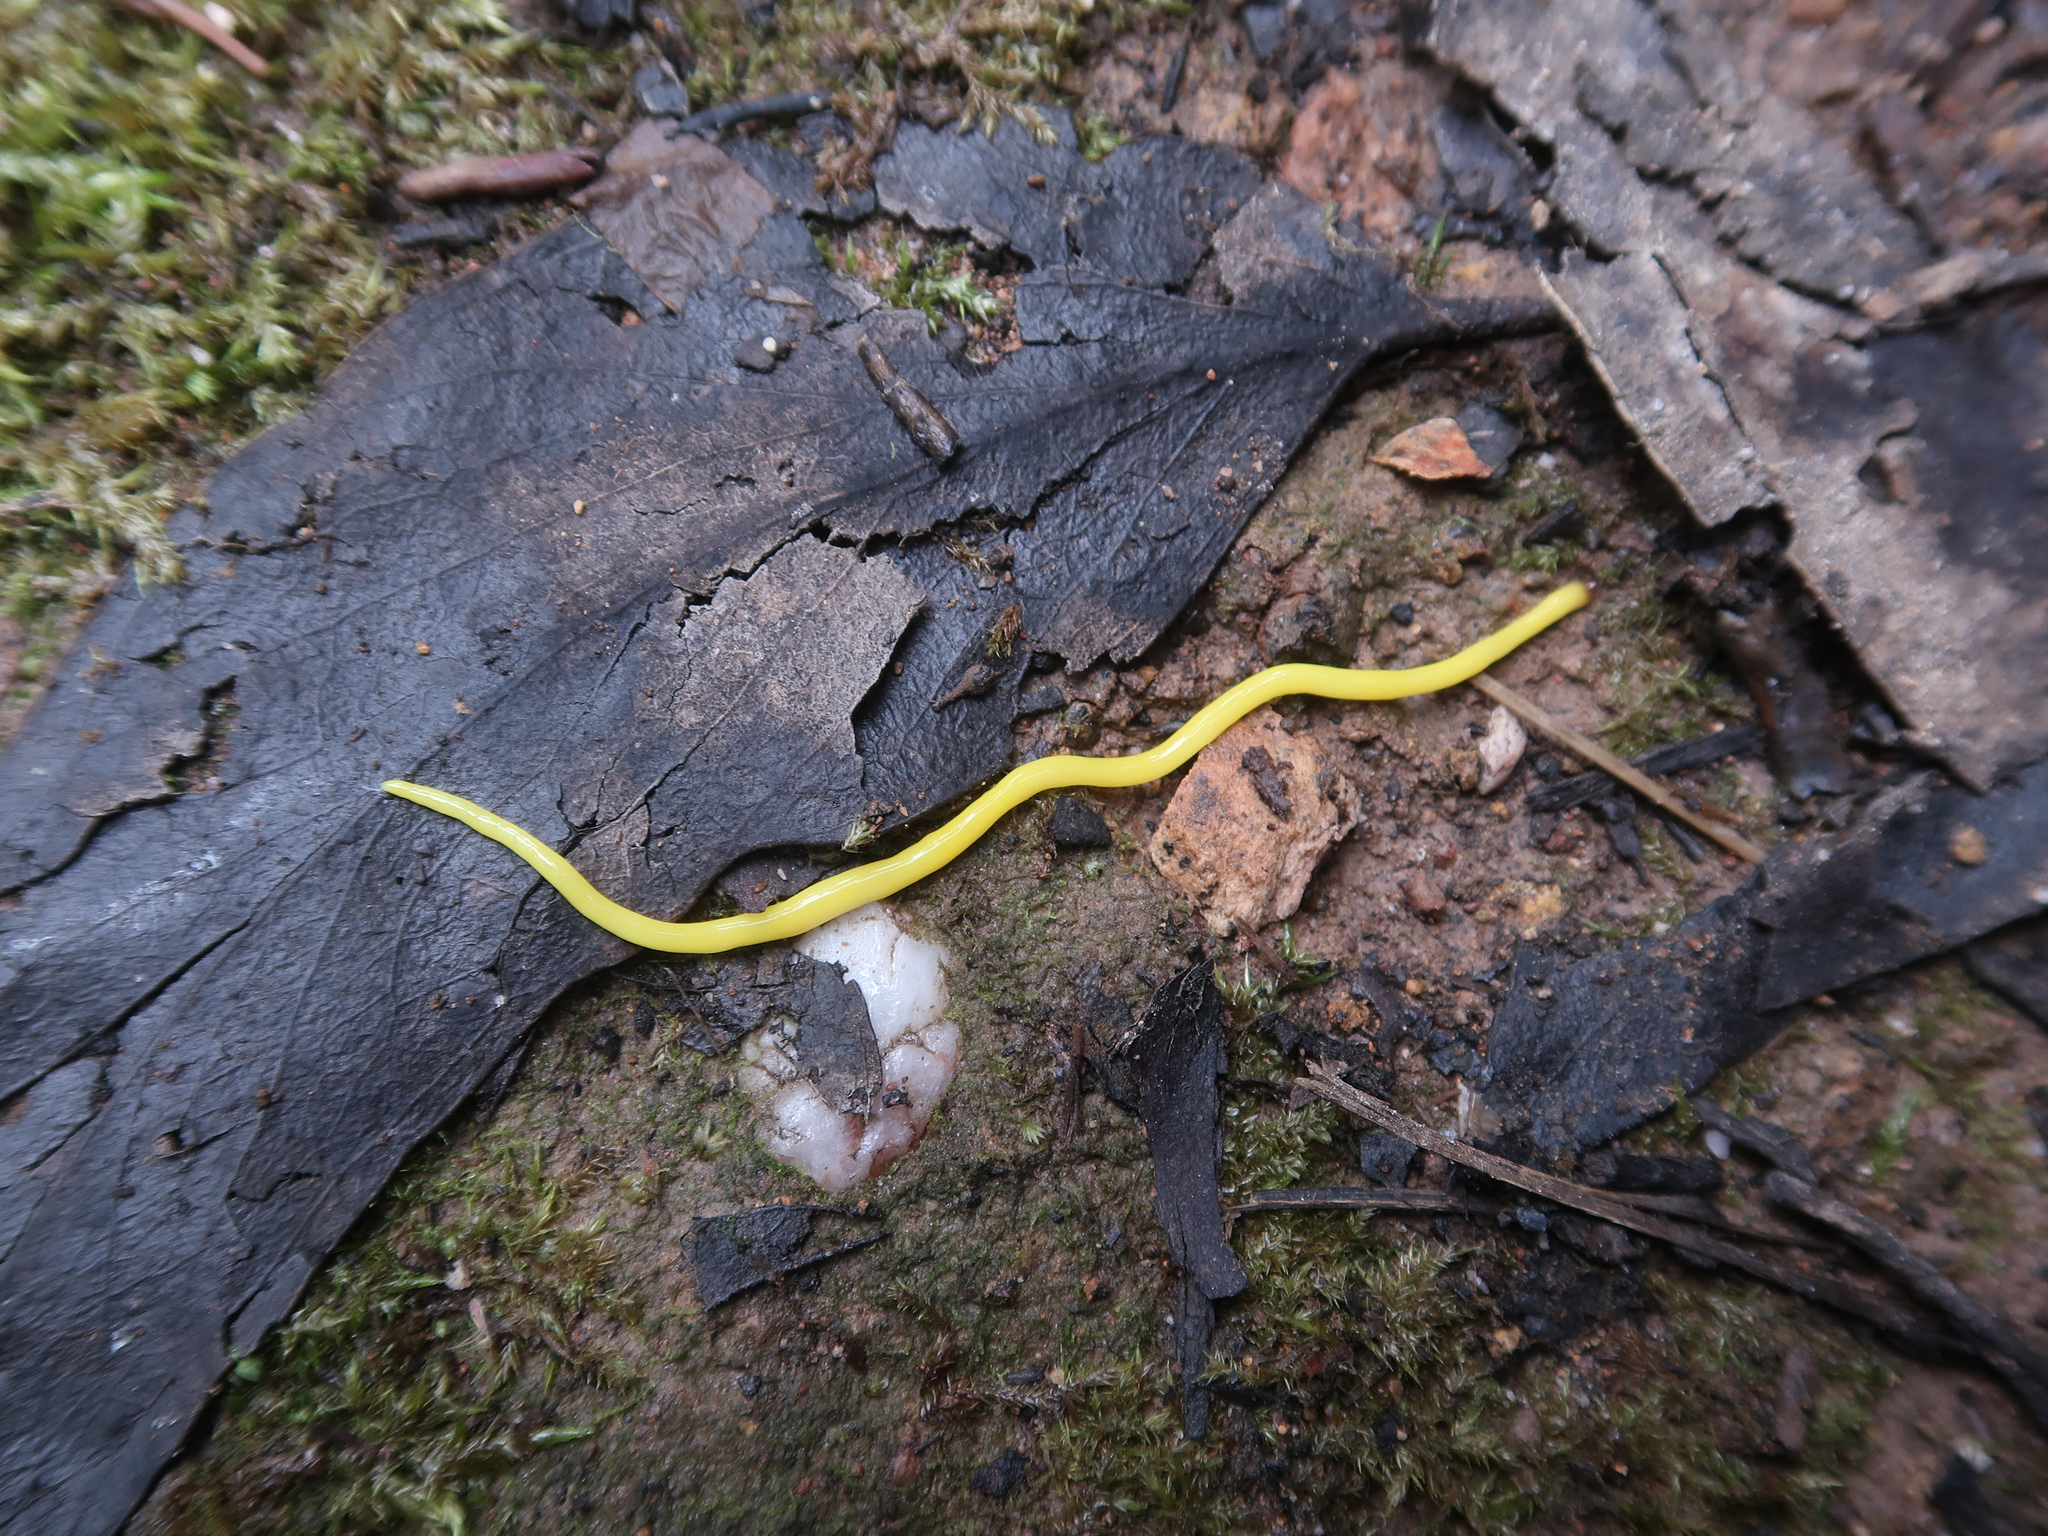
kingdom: Animalia
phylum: Platyhelminthes
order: Tricladida
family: Geoplanidae
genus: Fletchamia
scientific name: Fletchamia sugdeni
